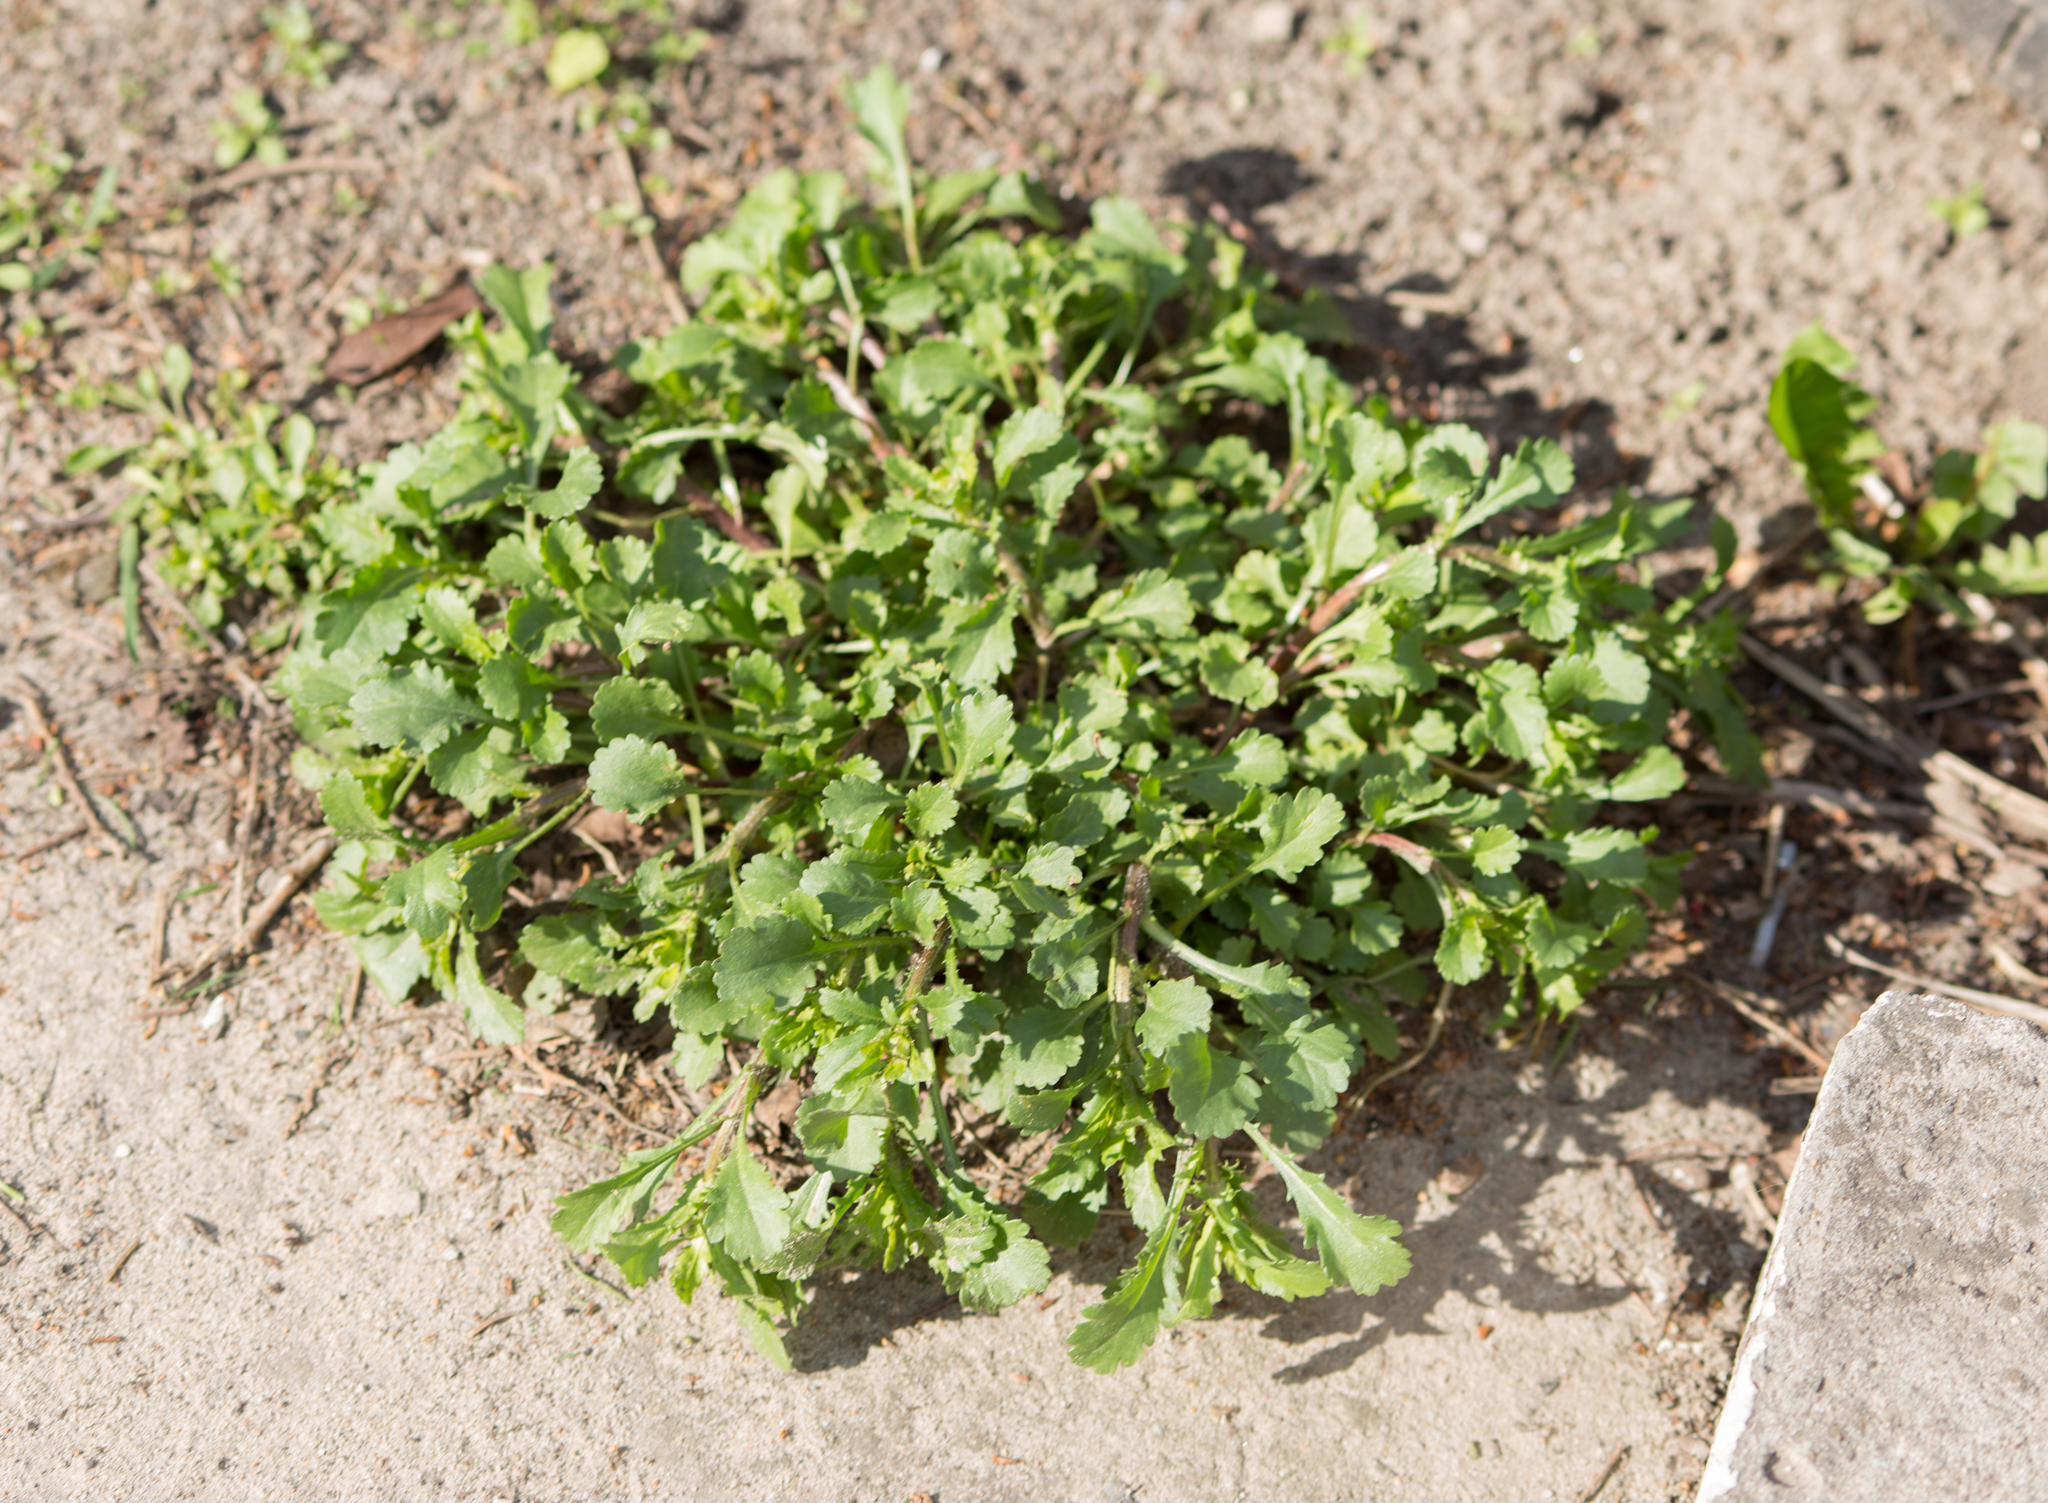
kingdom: Plantae
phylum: Tracheophyta
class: Magnoliopsida
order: Asterales
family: Asteraceae
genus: Leucanthemum
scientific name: Leucanthemum vulgare
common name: Oxeye daisy
